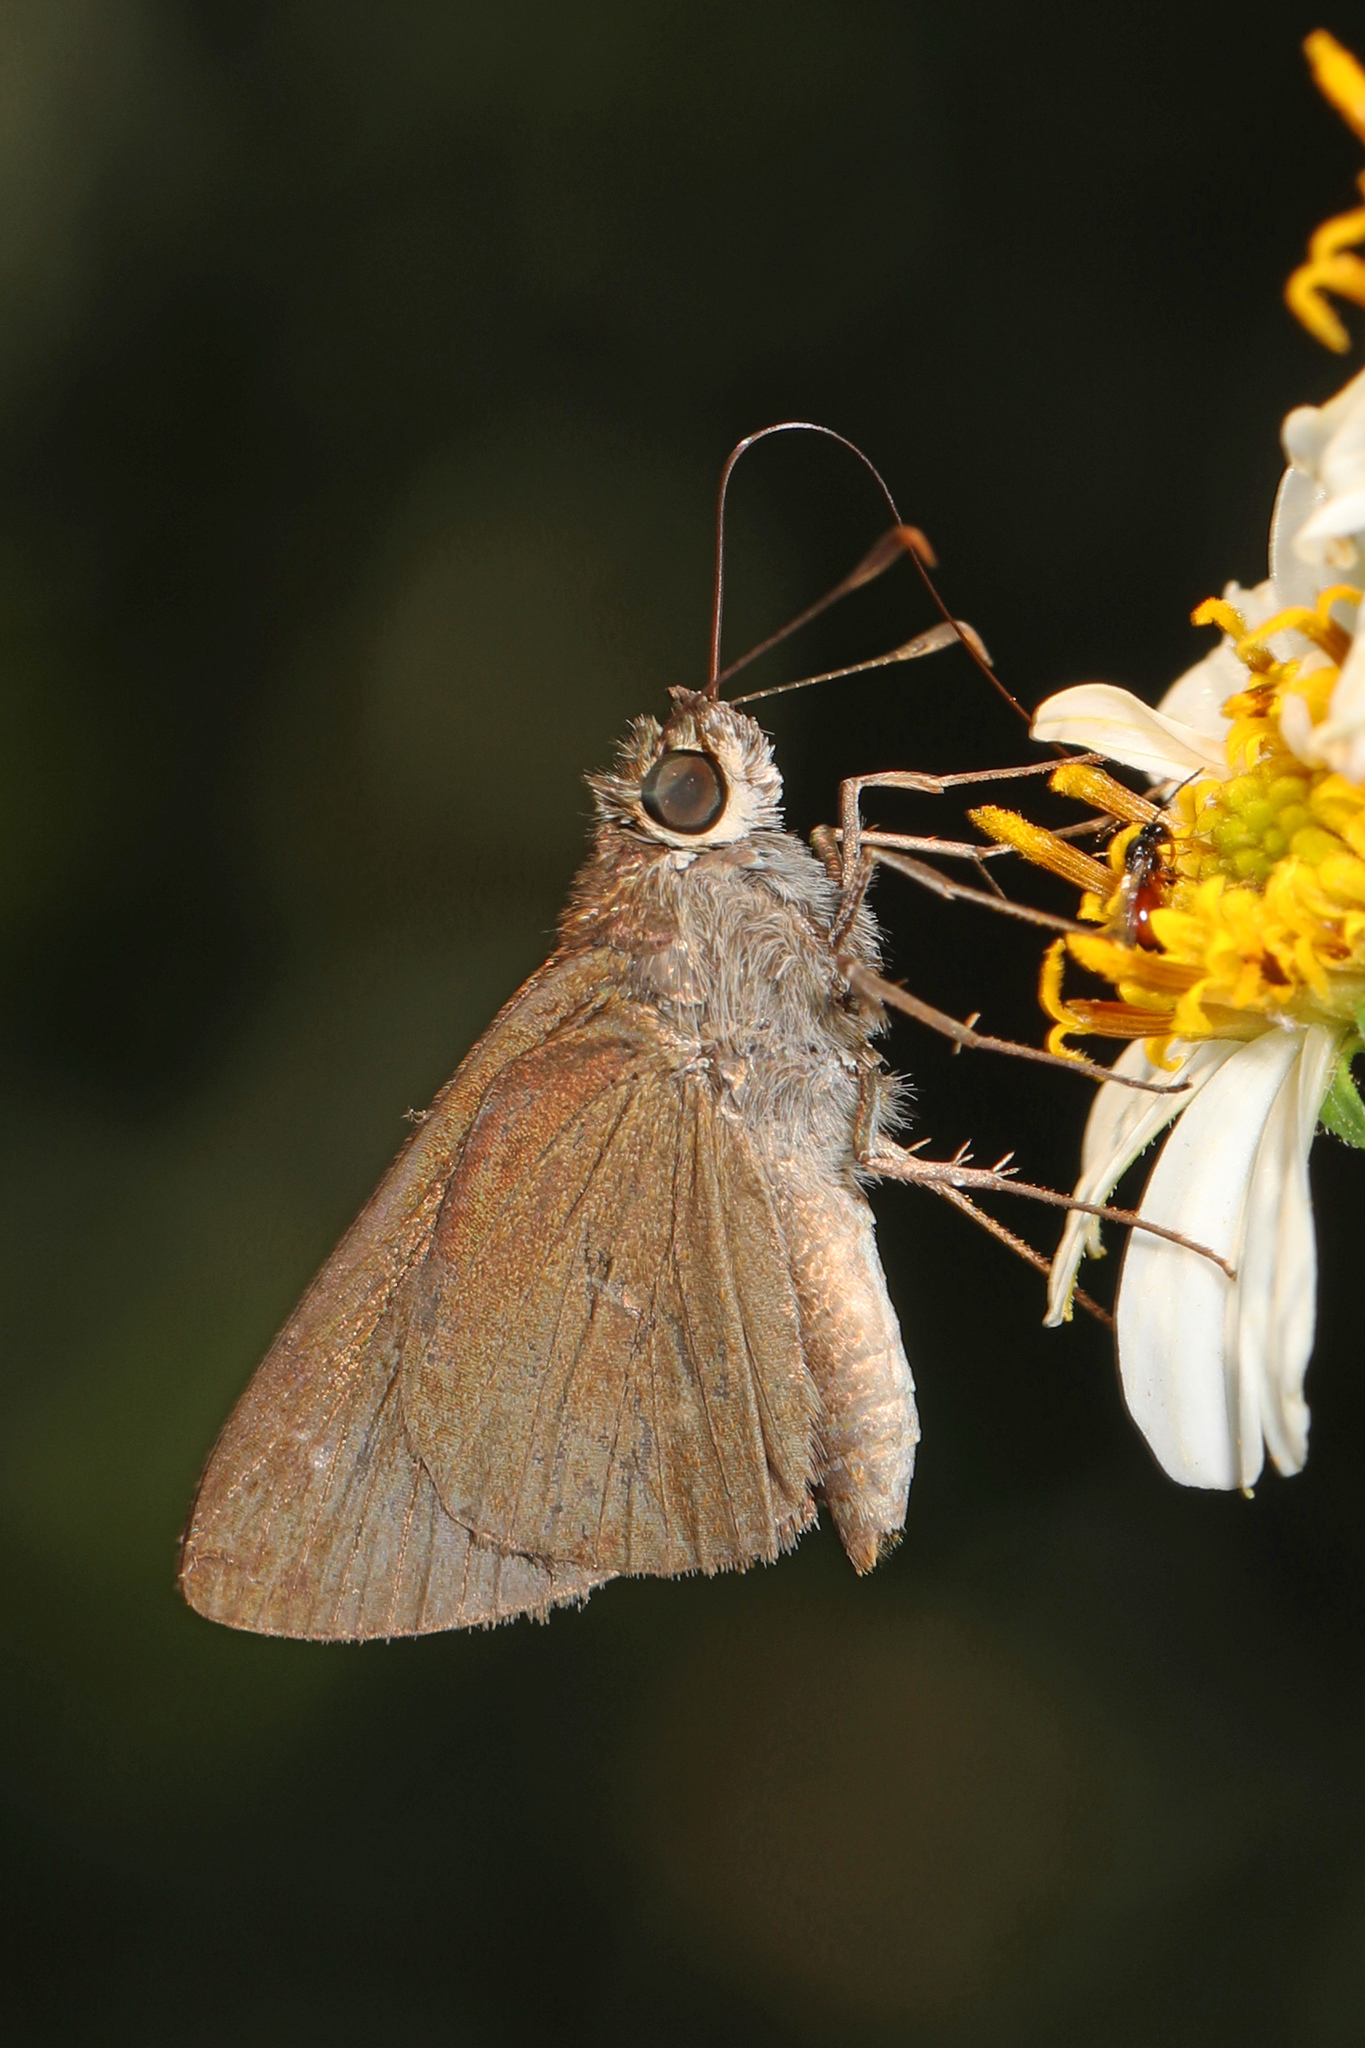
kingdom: Animalia
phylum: Arthropoda
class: Insecta
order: Lepidoptera
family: Hesperiidae
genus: Asbolis
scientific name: Asbolis capucinus
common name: Monk skipper
